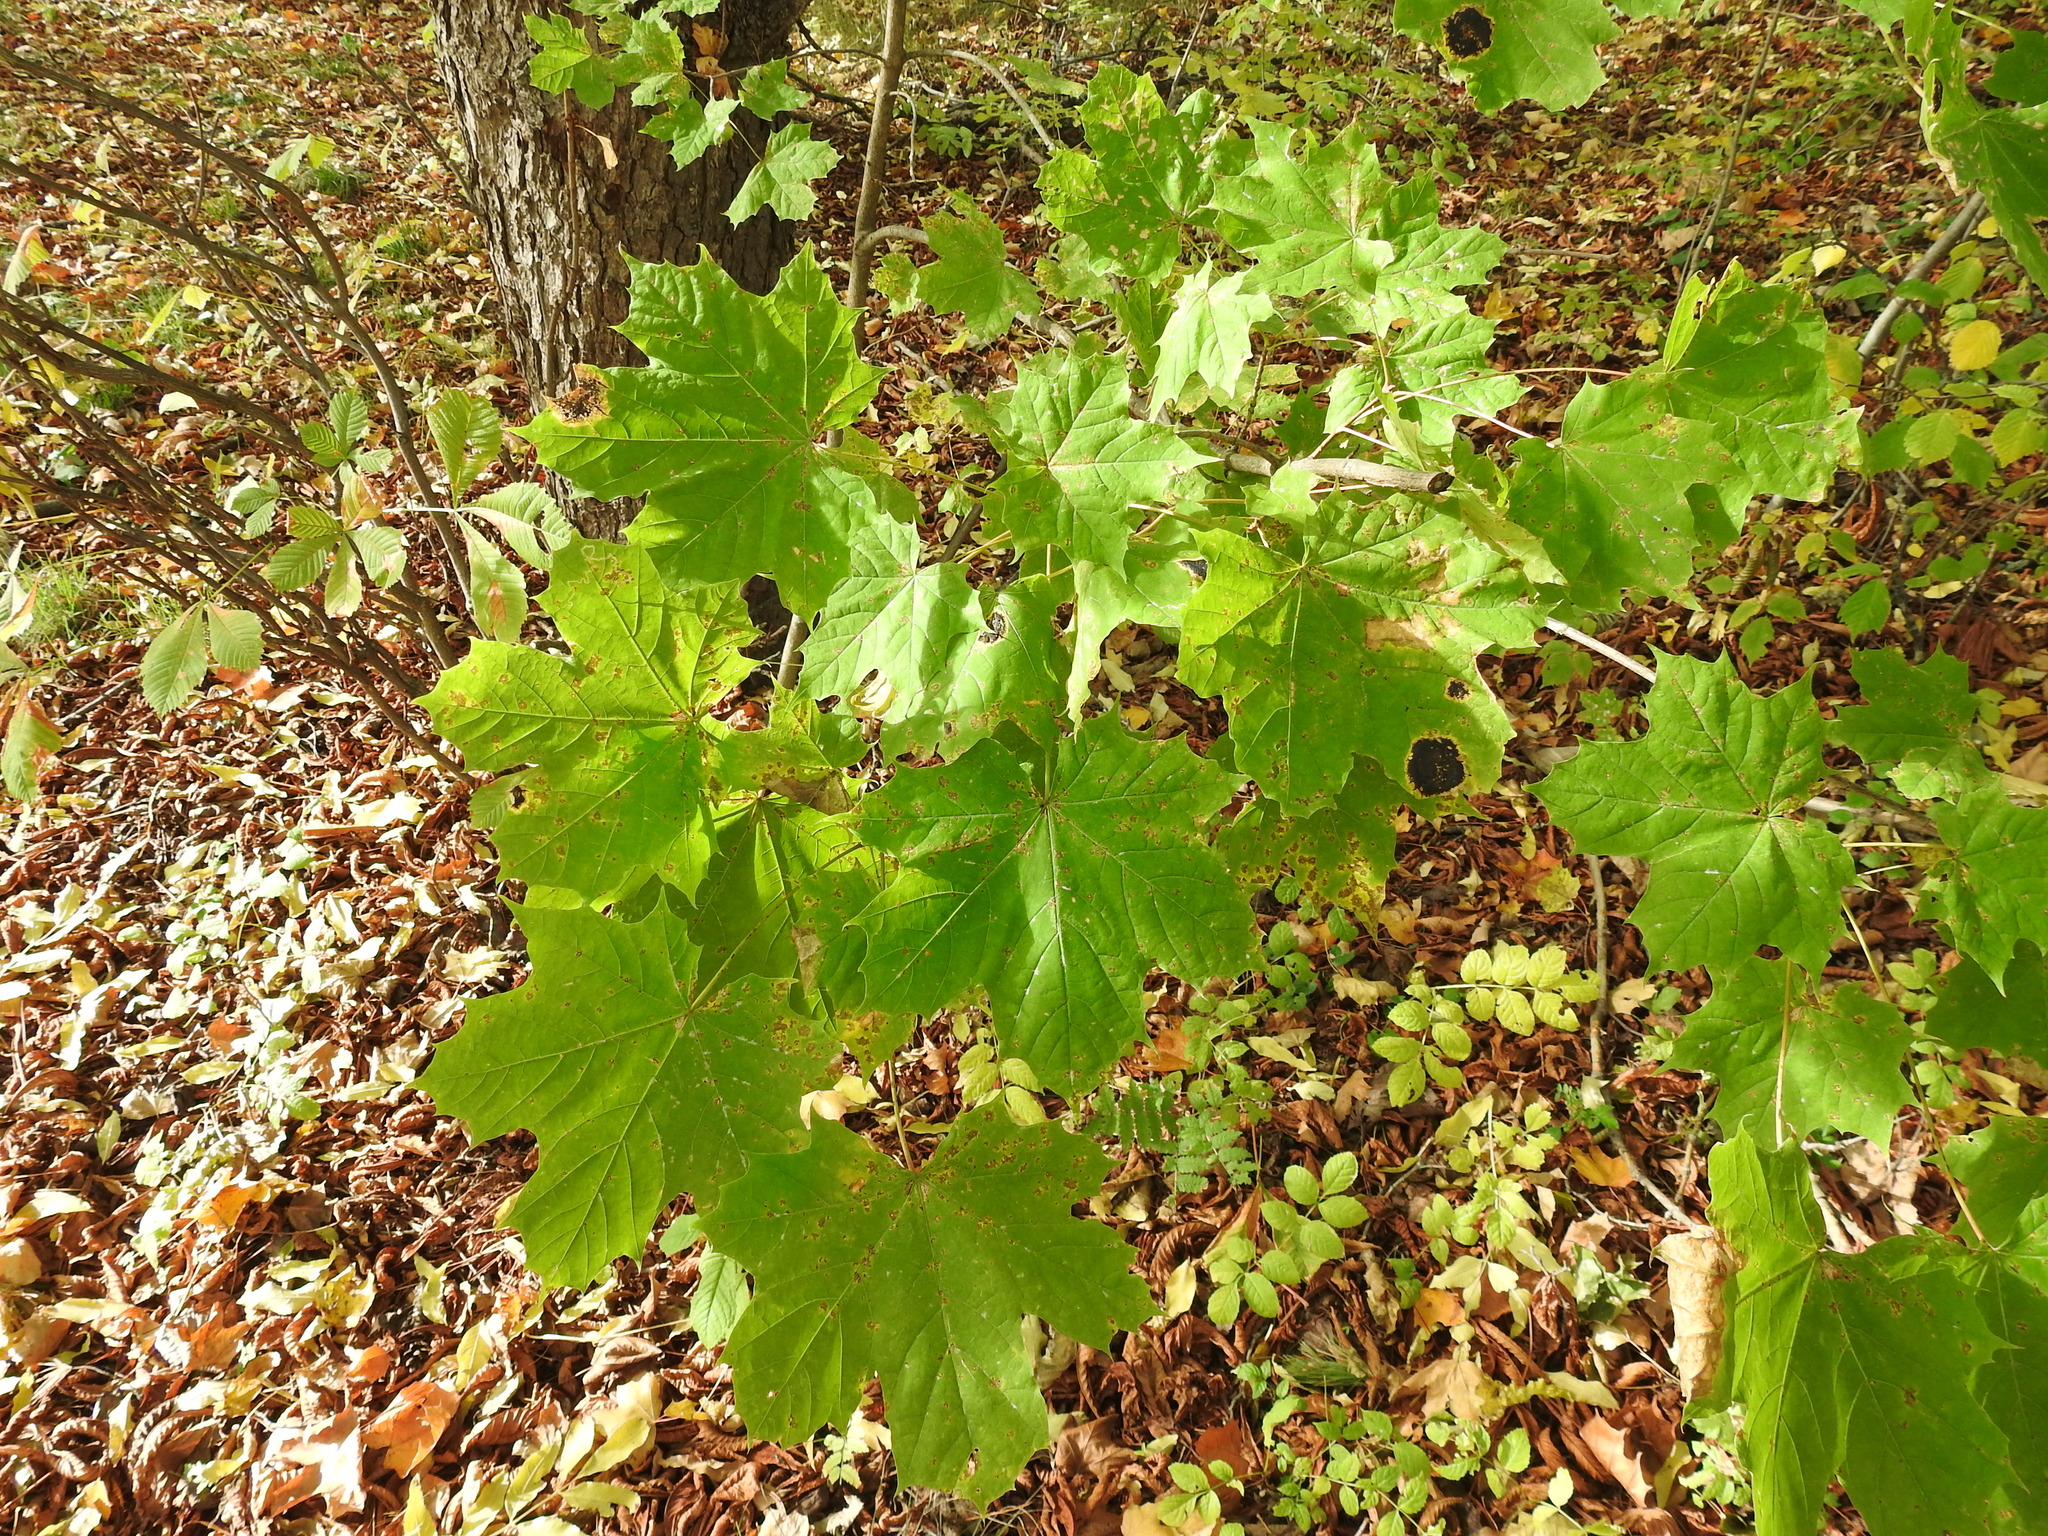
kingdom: Plantae
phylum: Tracheophyta
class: Magnoliopsida
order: Sapindales
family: Sapindaceae
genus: Acer
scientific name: Acer platanoides
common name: Norway maple
